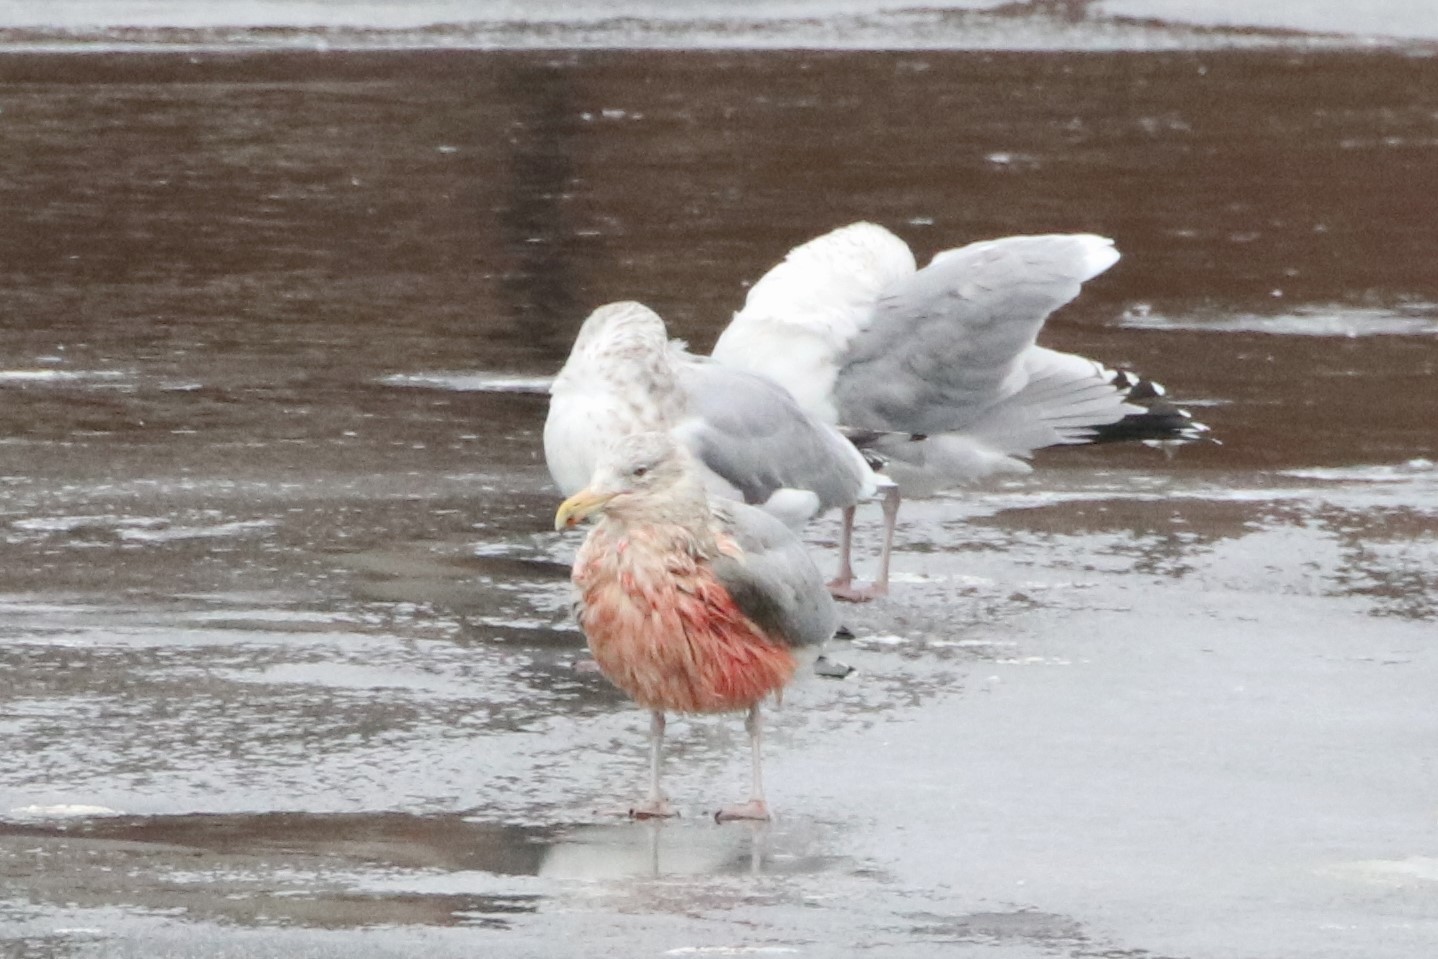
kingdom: Animalia
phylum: Chordata
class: Aves
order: Charadriiformes
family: Laridae
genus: Larus
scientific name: Larus argentatus
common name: Herring gull
